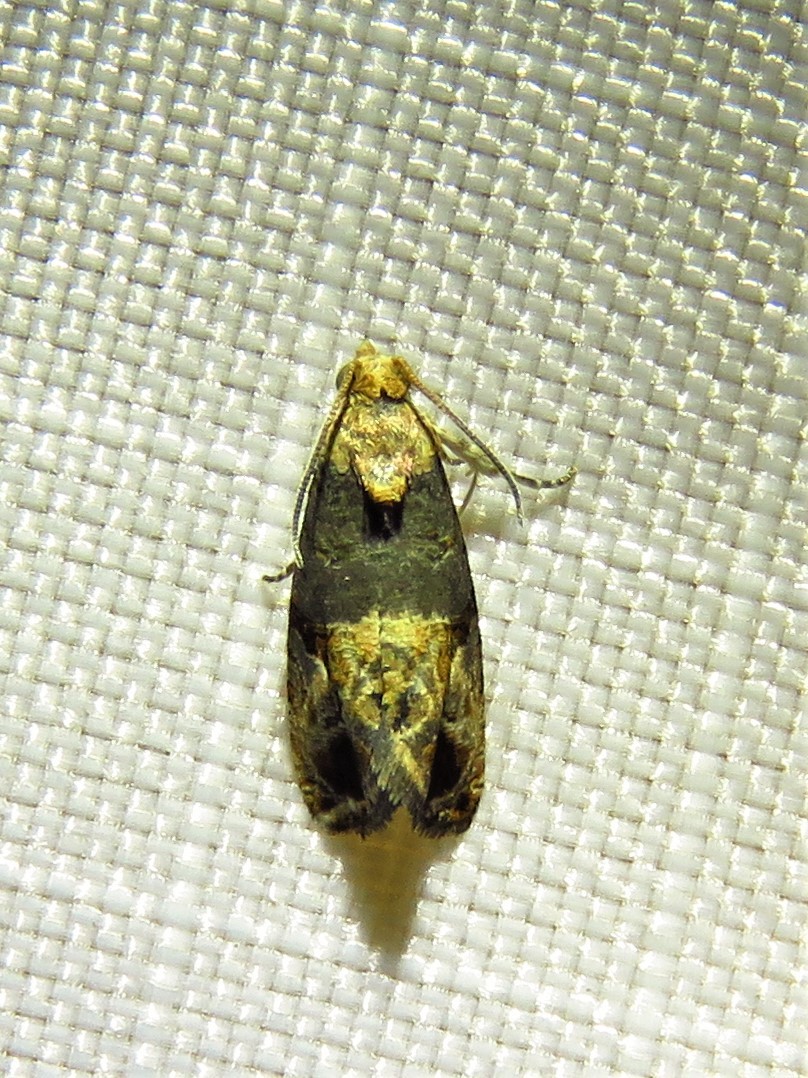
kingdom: Animalia
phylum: Arthropoda
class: Insecta
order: Lepidoptera
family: Tortricidae
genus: Paralobesia
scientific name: Paralobesia viteana
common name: Grape berry moth
